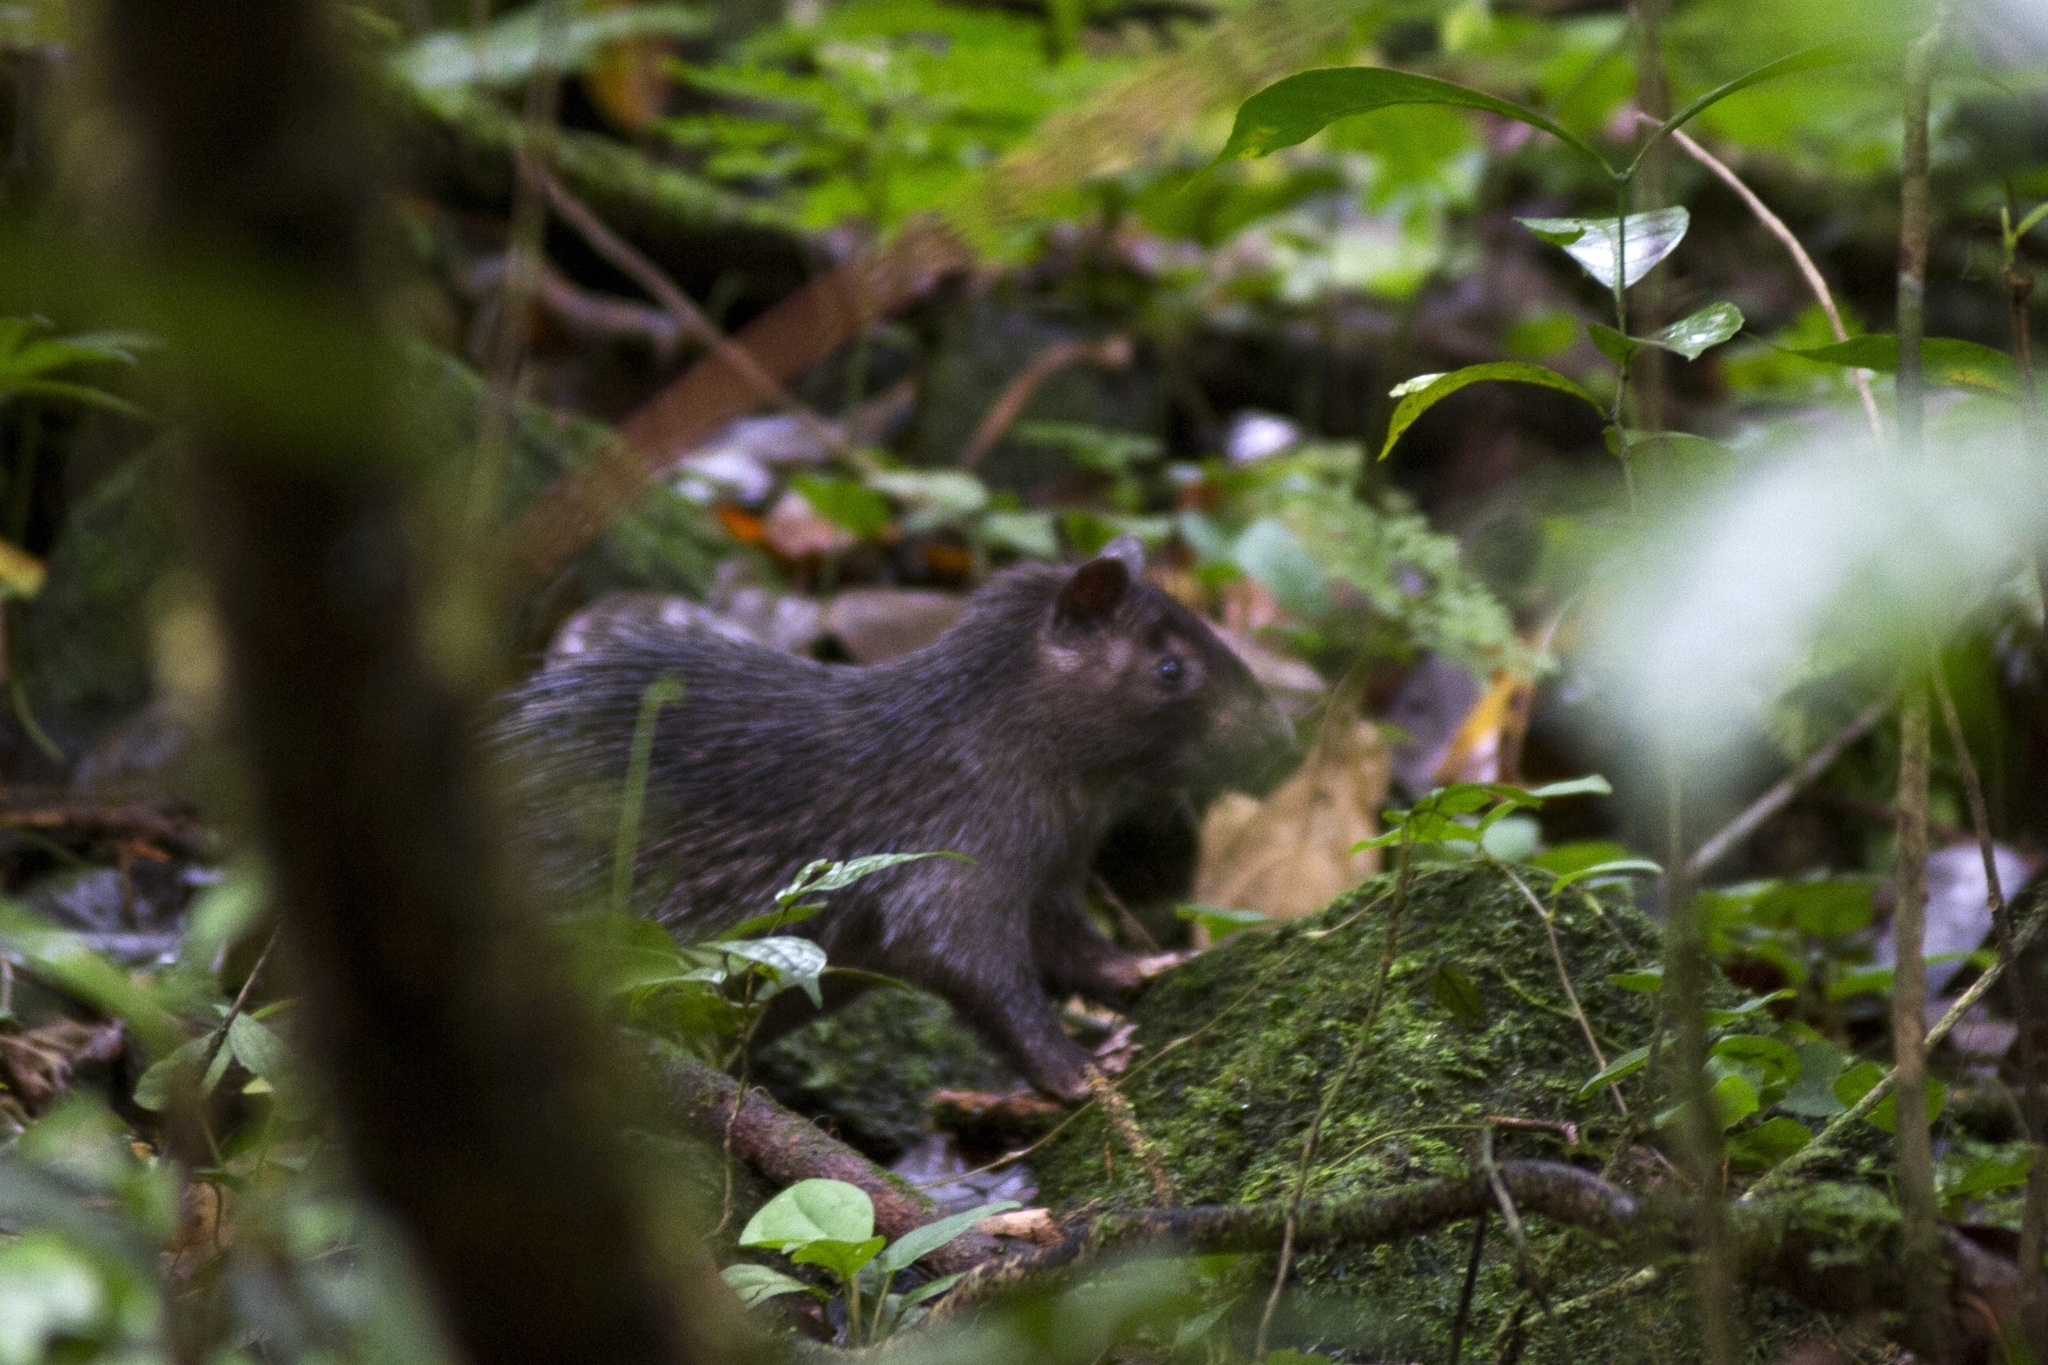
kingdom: Animalia
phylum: Chordata
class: Mammalia
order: Rodentia
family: Hystricidae
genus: Atherurus
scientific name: Atherurus africanus
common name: African brush-tailed porcupine
